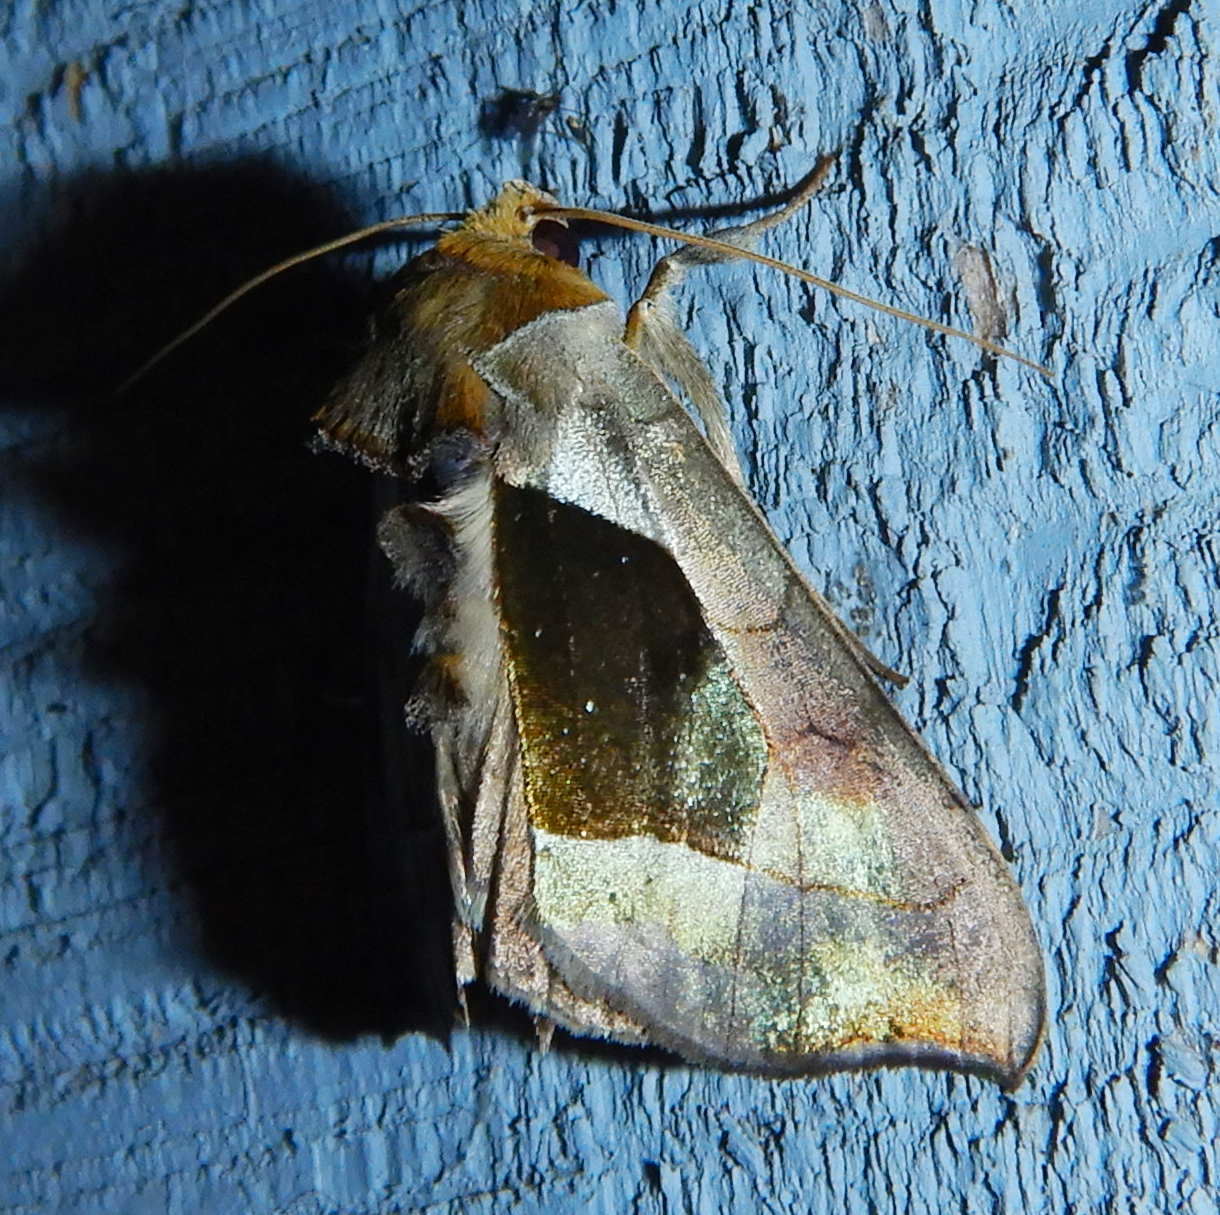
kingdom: Animalia
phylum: Arthropoda
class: Insecta
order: Lepidoptera
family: Noctuidae
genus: Diachrysia
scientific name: Diachrysia balluca
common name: Green-patched looper moth
